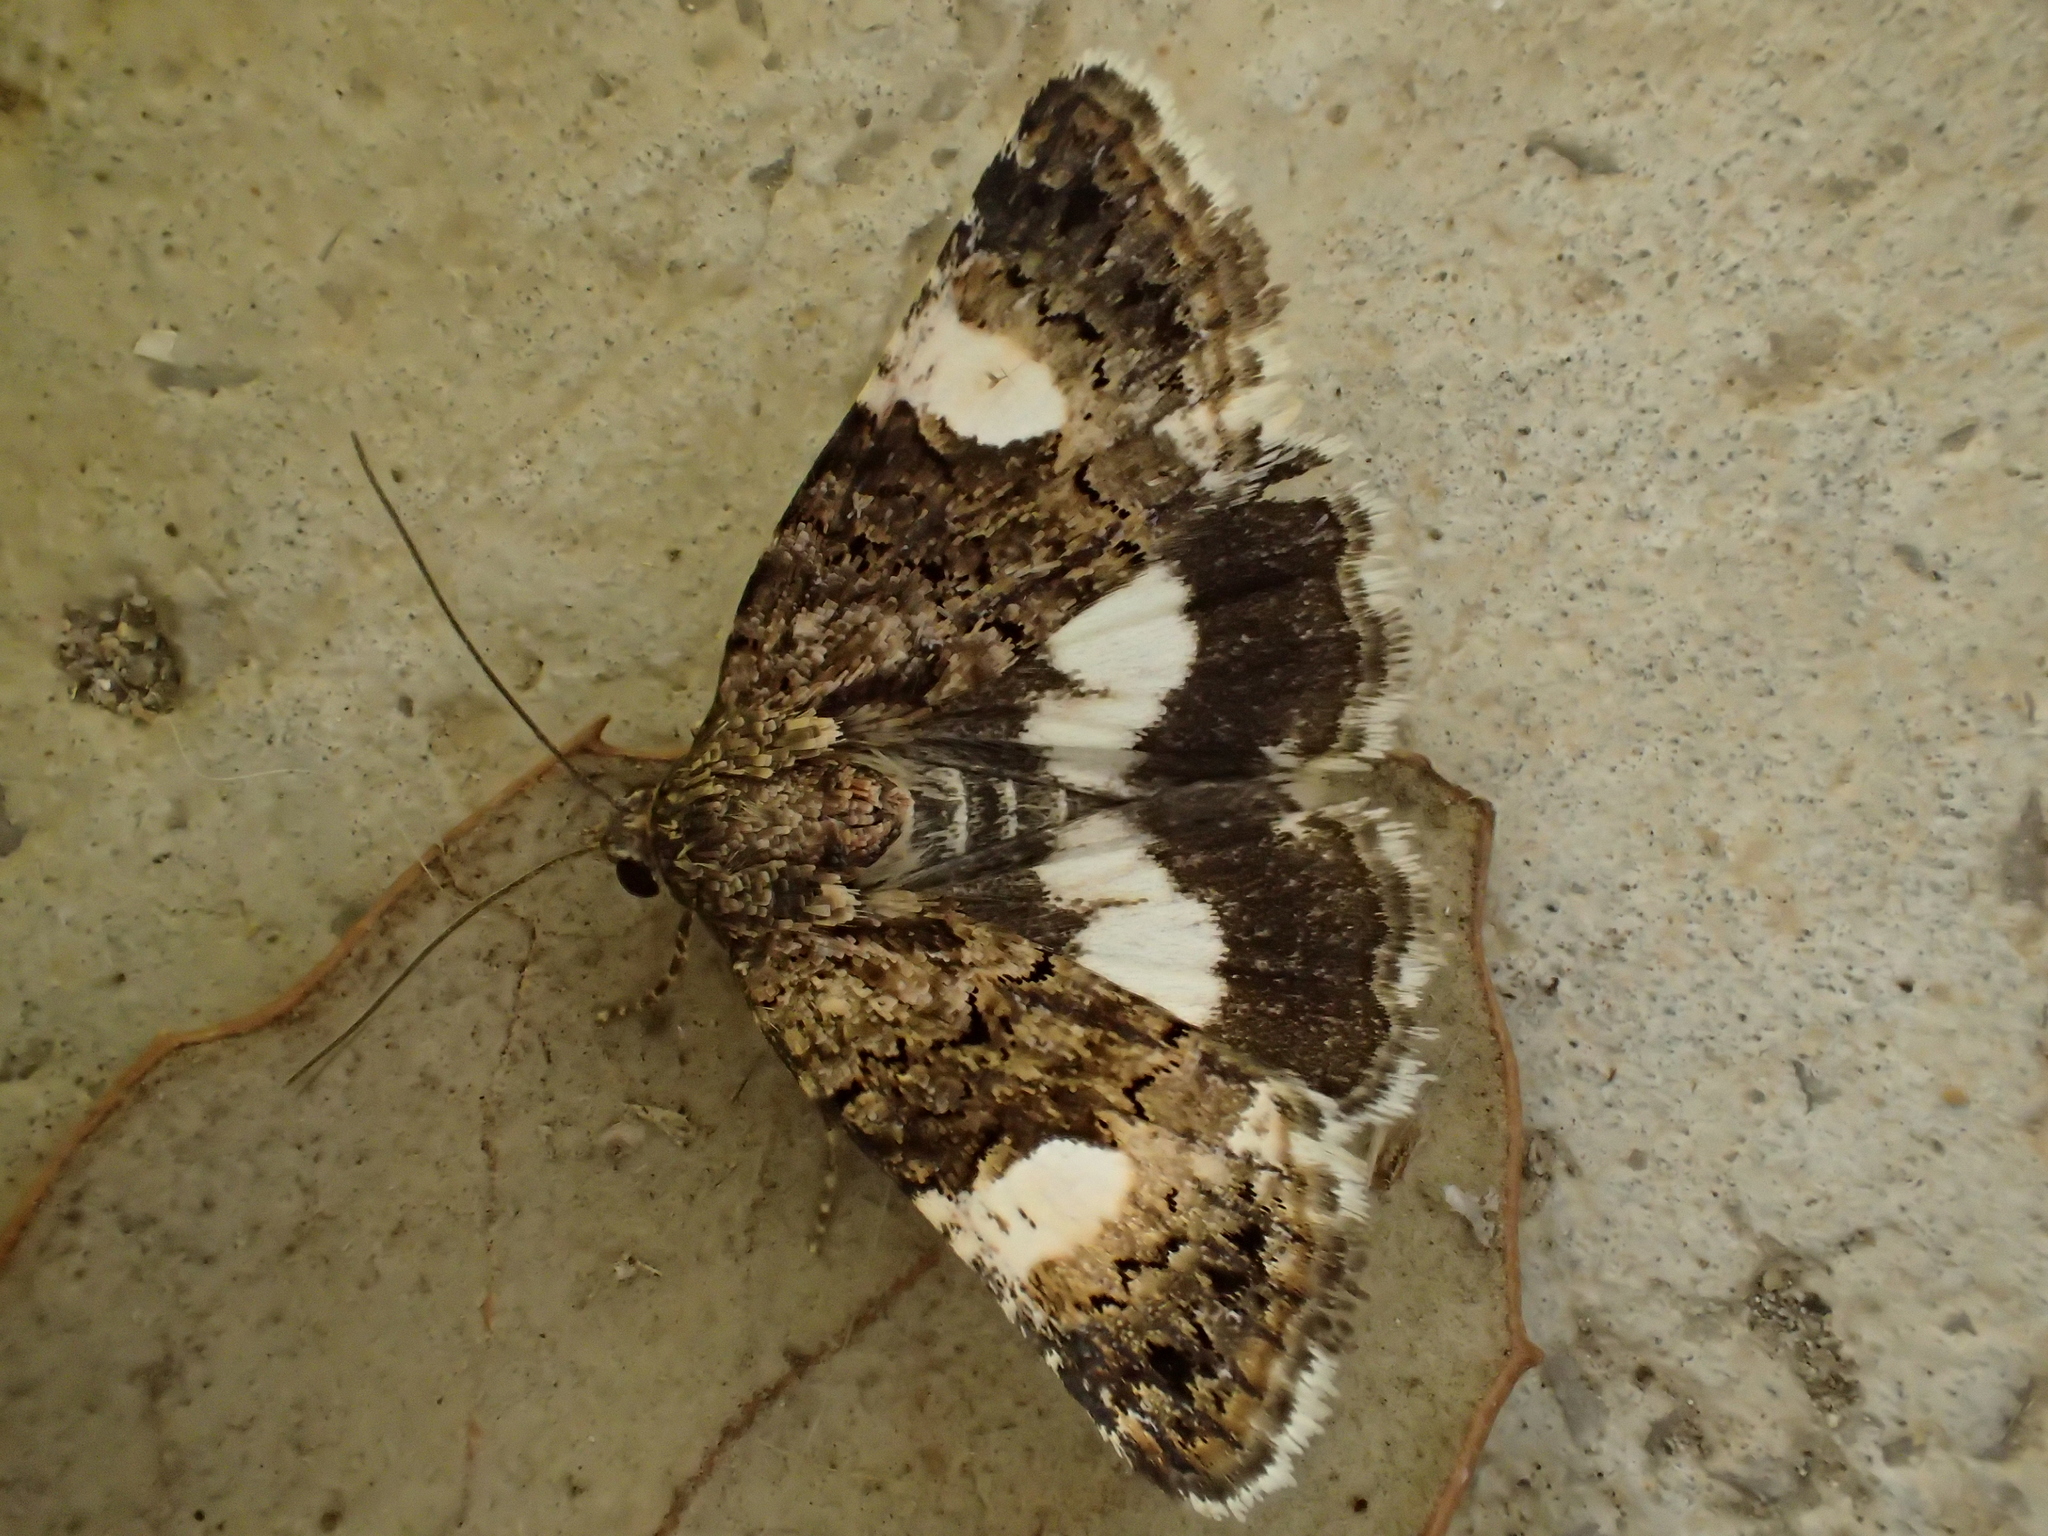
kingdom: Animalia
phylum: Arthropoda
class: Insecta
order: Lepidoptera
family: Erebidae
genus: Tyta
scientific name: Tyta luctuosa
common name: Four-spotted
